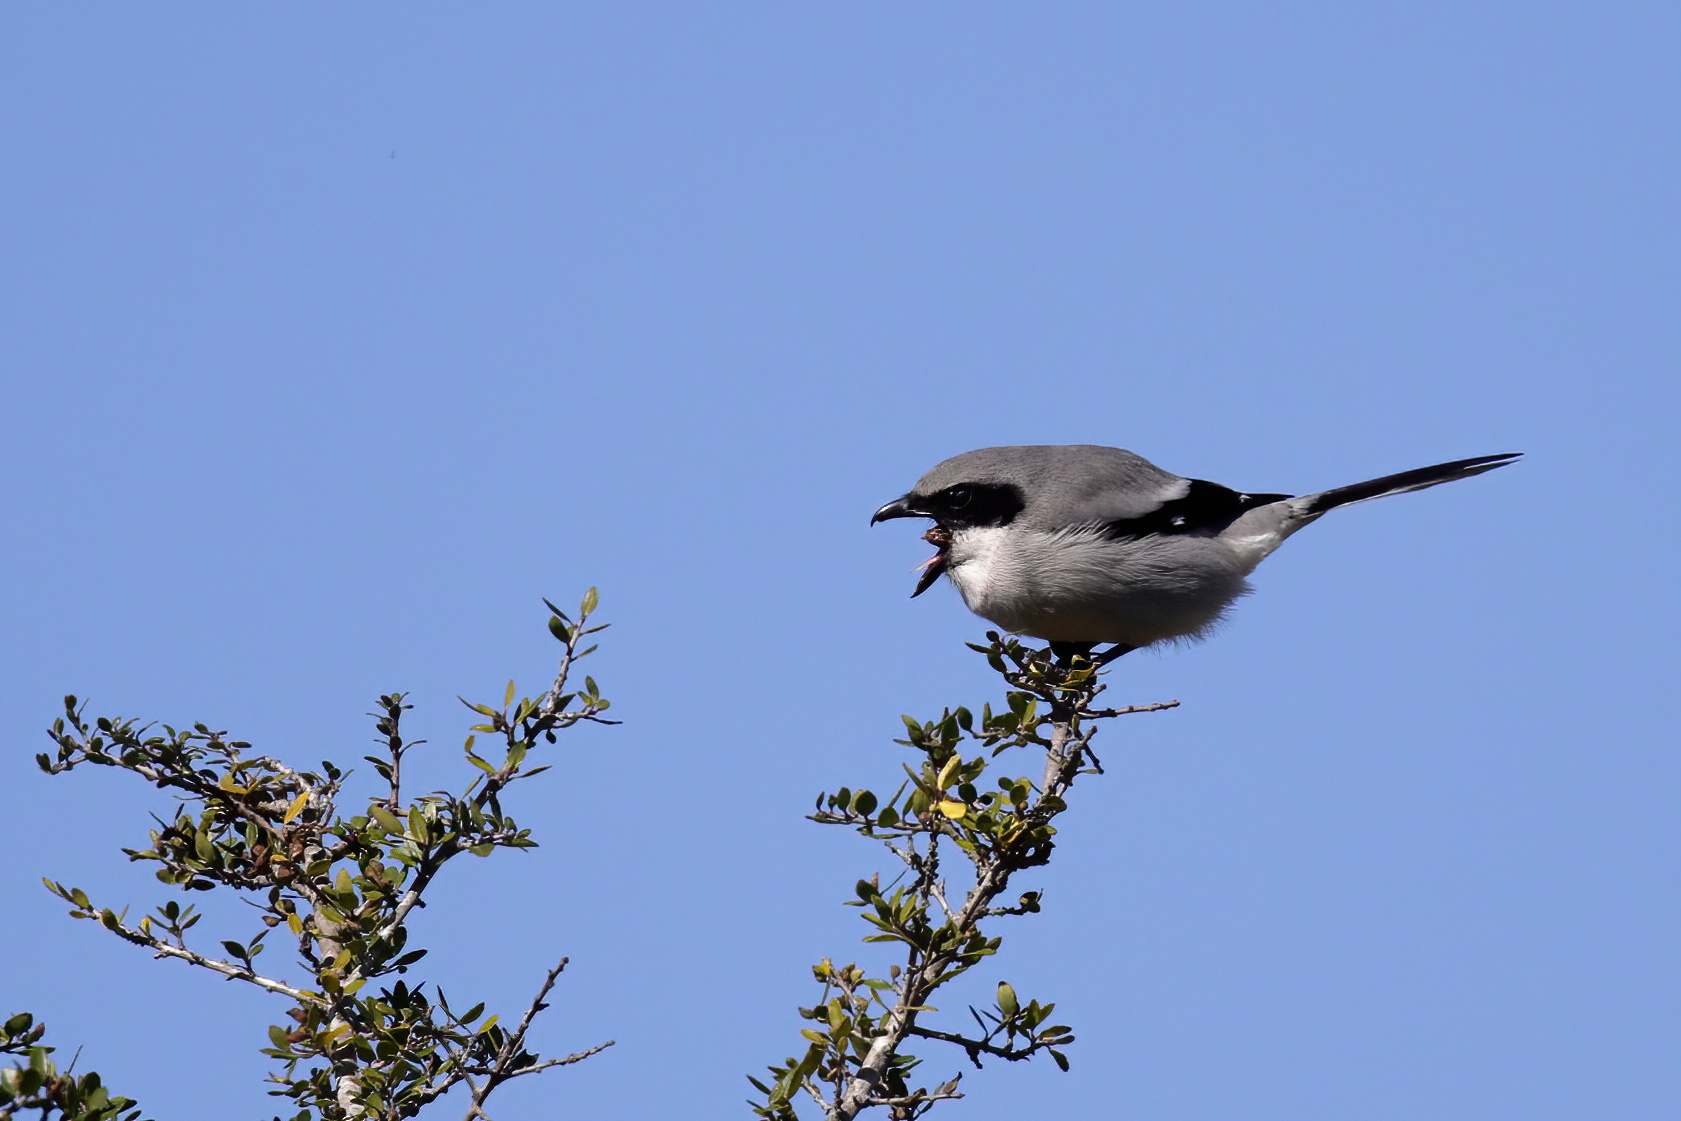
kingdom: Animalia
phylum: Chordata
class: Aves
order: Passeriformes
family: Laniidae
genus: Lanius
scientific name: Lanius ludovicianus
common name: Loggerhead shrike
